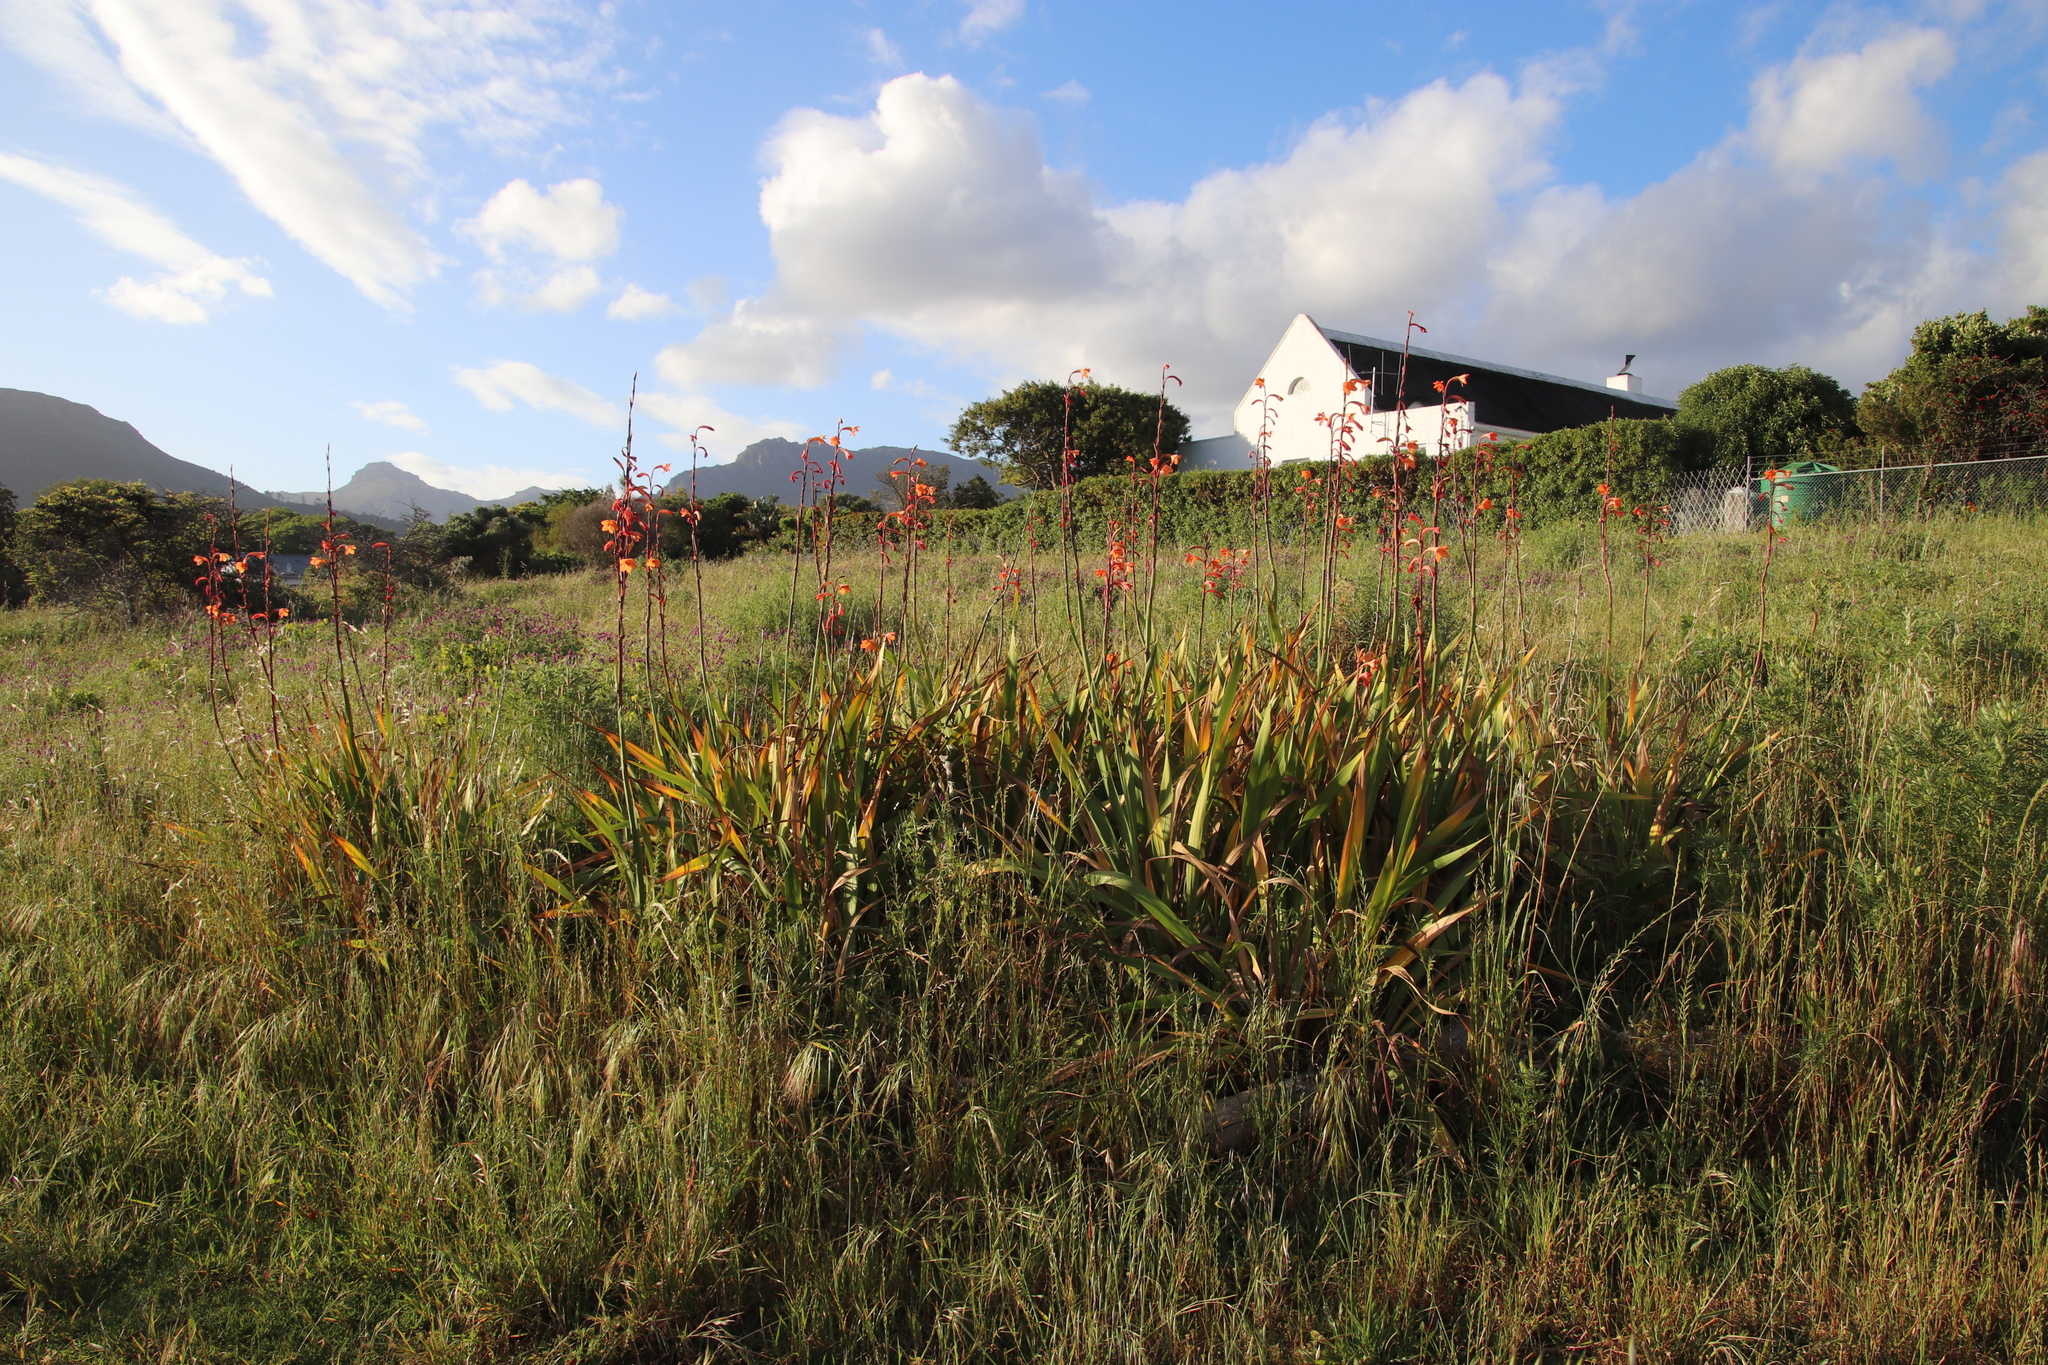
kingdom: Plantae
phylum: Tracheophyta
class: Liliopsida
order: Asparagales
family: Iridaceae
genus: Watsonia
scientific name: Watsonia meriana
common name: Bulbil bugle-lily
